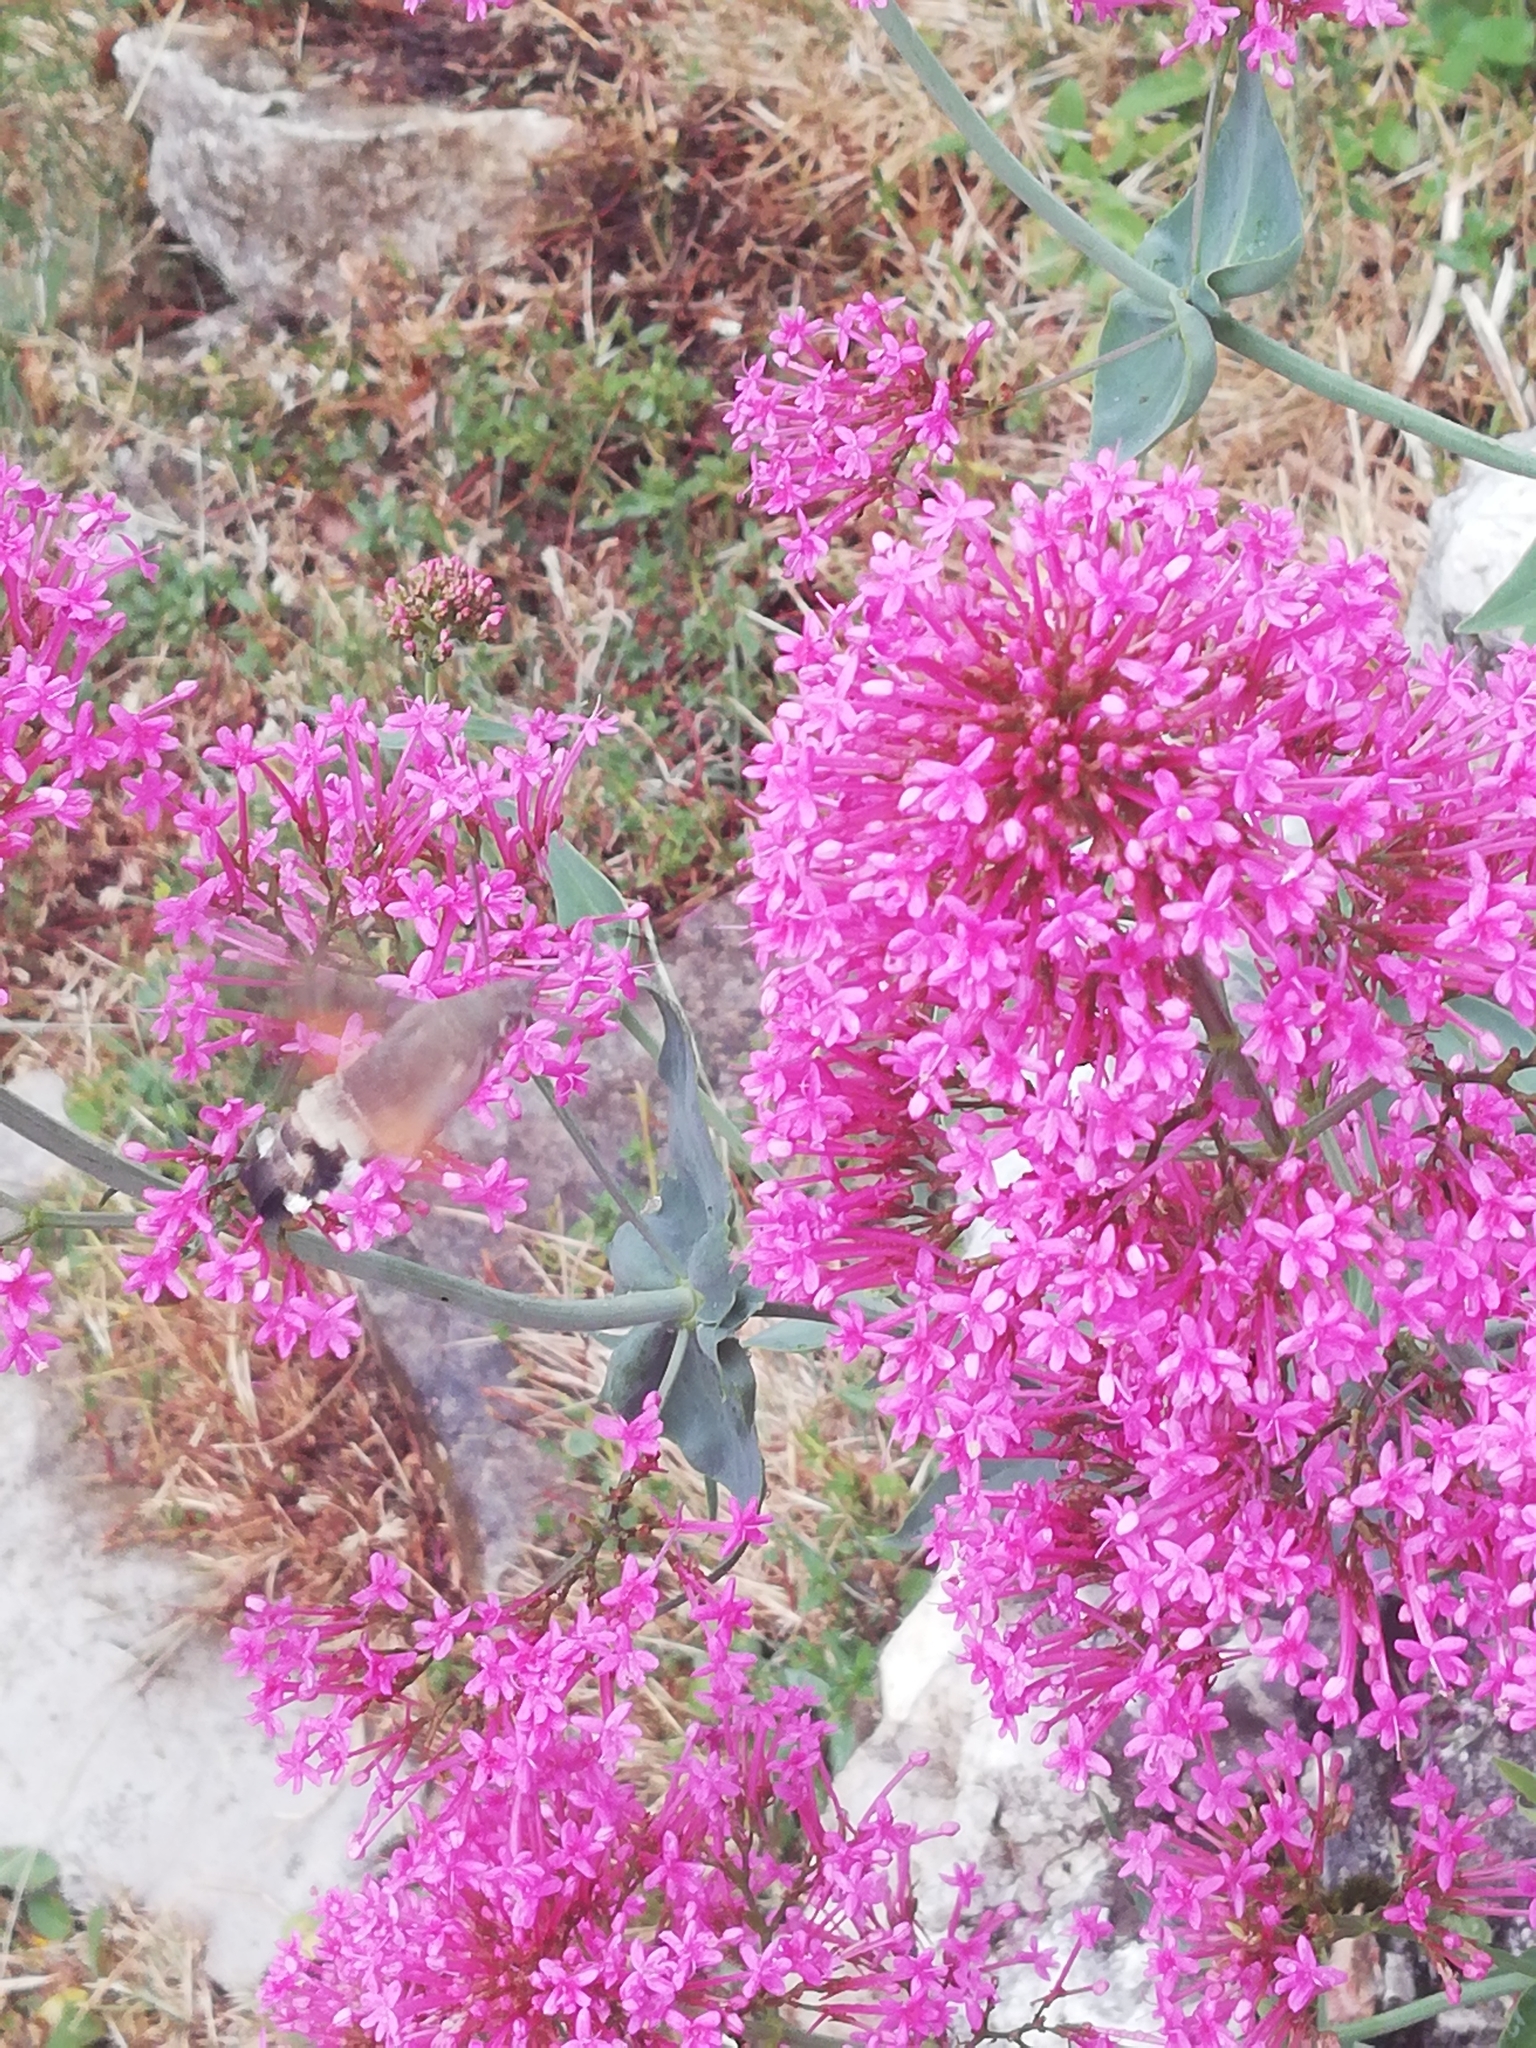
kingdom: Animalia
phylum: Arthropoda
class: Insecta
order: Lepidoptera
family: Sphingidae
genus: Macroglossum
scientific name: Macroglossum stellatarum
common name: Humming-bird hawk-moth
